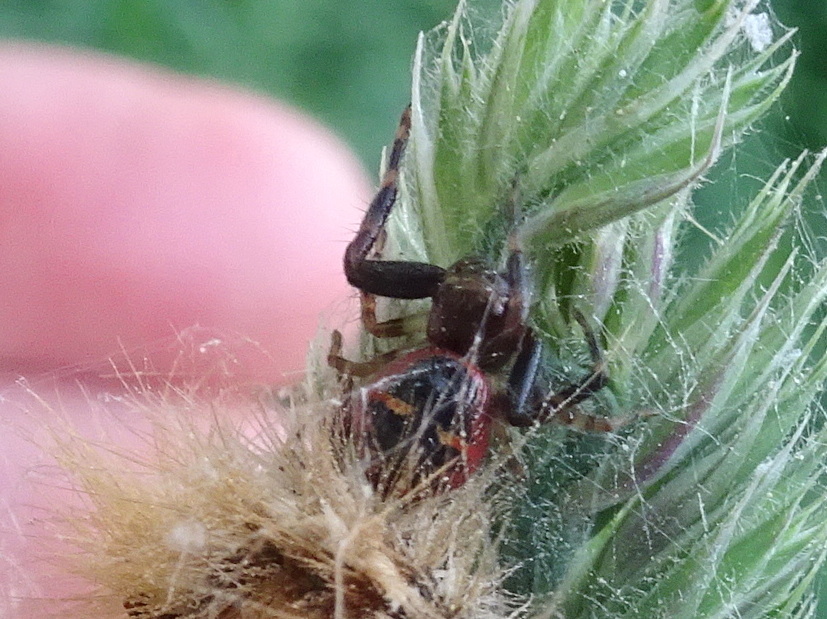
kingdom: Animalia
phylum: Arthropoda
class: Arachnida
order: Araneae
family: Thomisidae
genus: Synema
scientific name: Synema globosum
